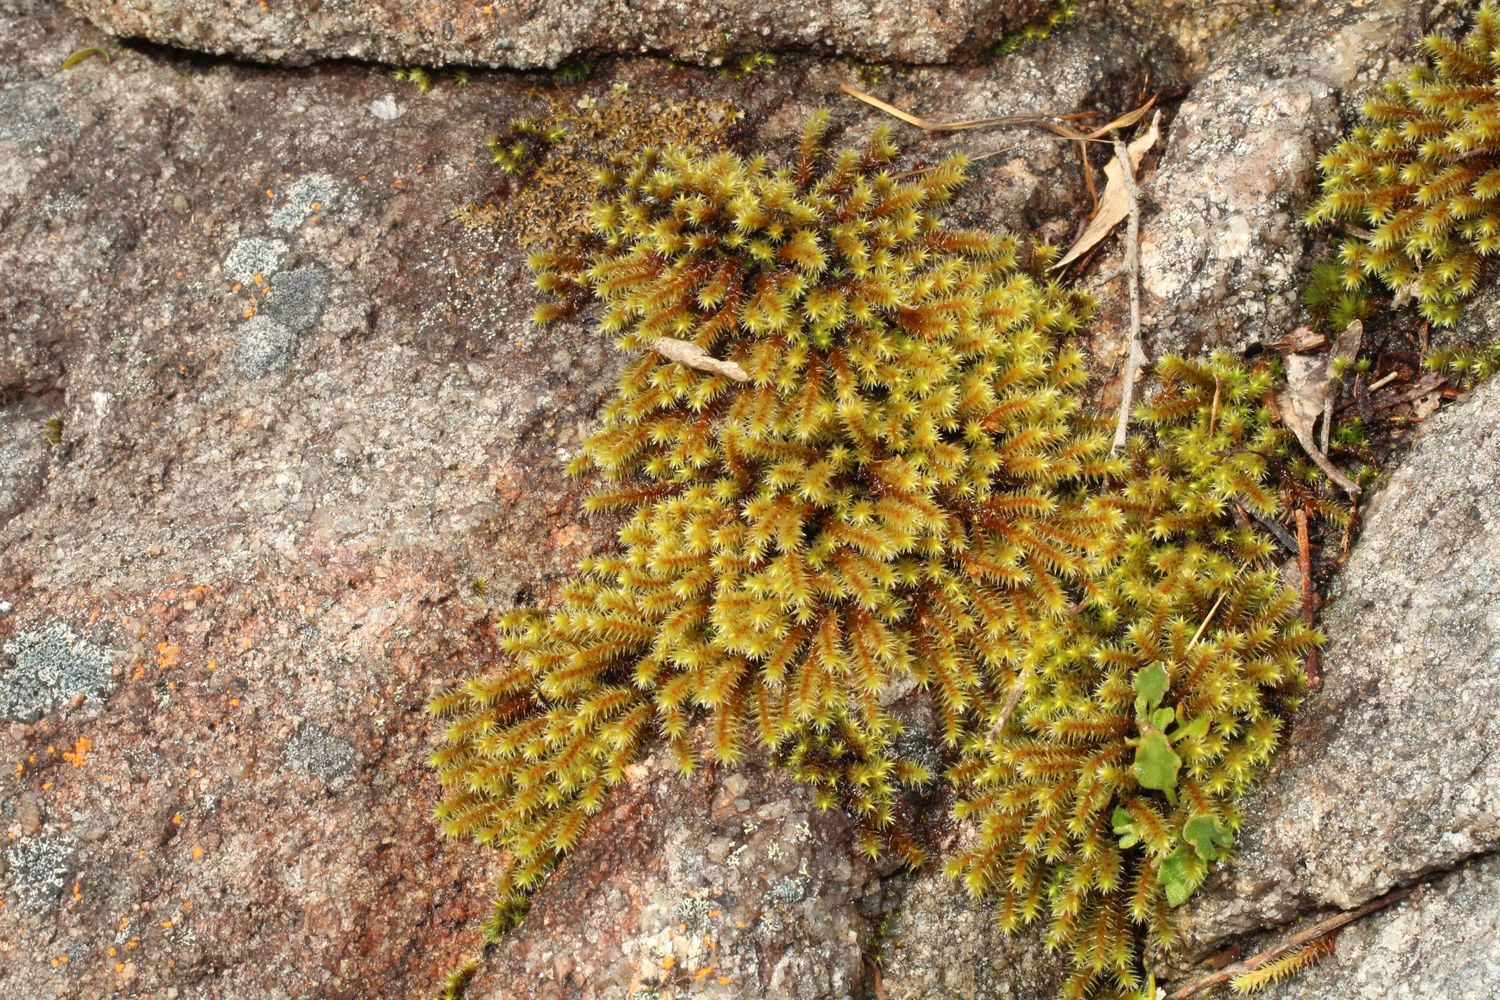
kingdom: Plantae
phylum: Bryophyta
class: Bryopsida
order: Hedwigiales
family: Hedwigiaceae
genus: Hedwigidium
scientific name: Hedwigidium imberbe
